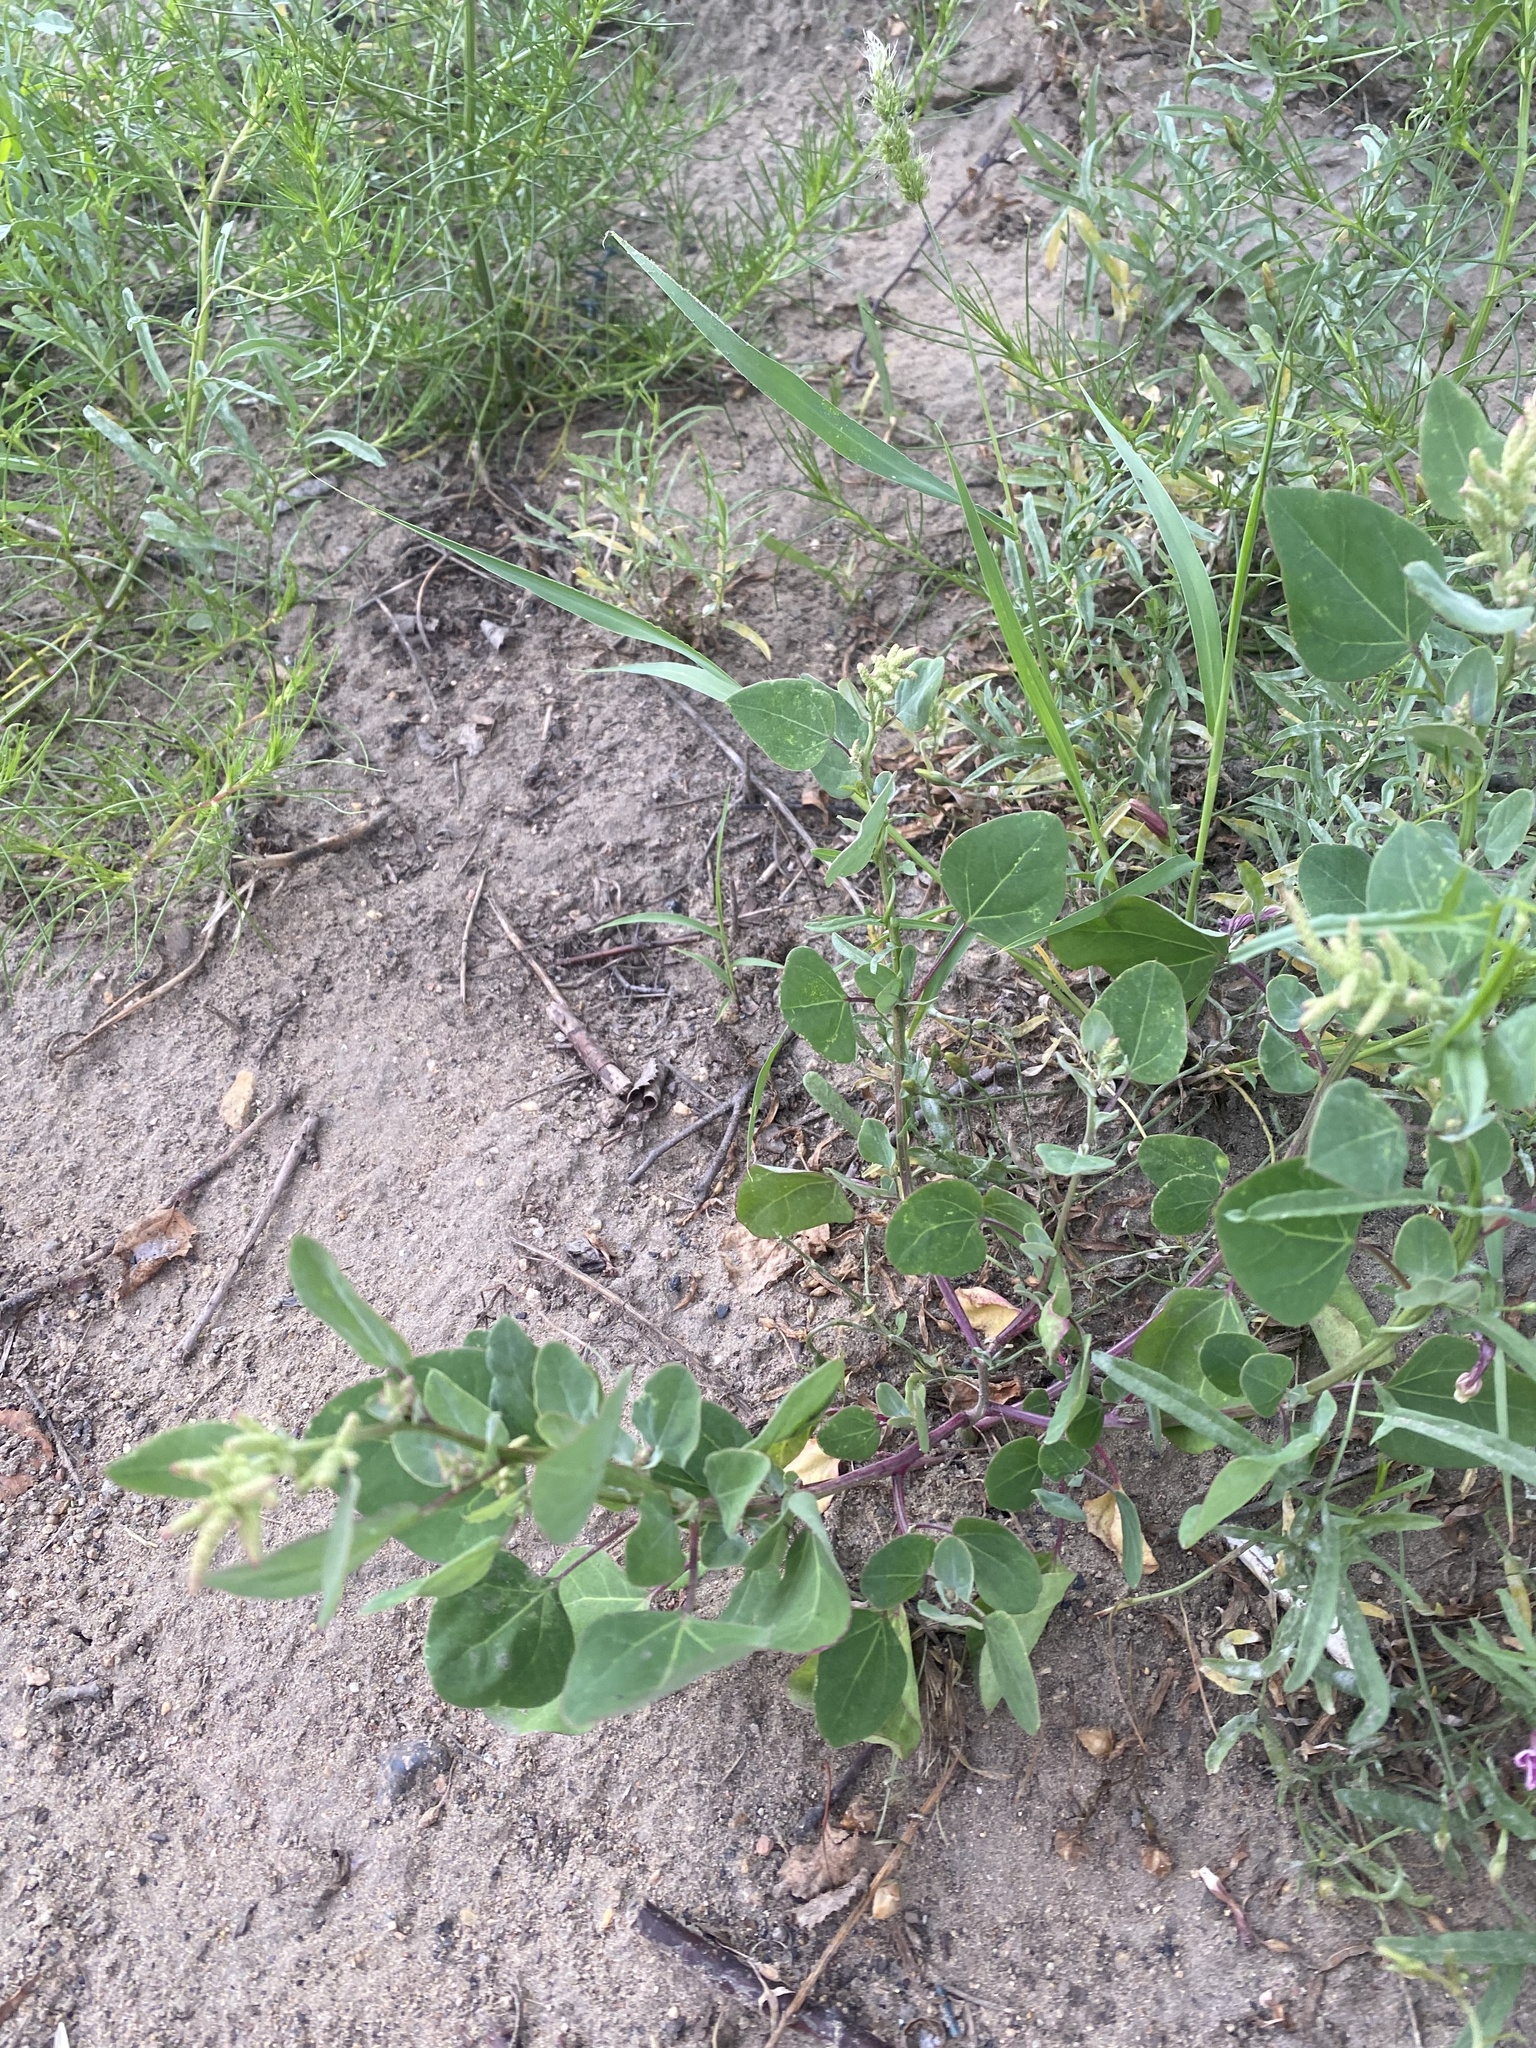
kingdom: Plantae
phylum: Tracheophyta
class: Magnoliopsida
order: Caryophyllales
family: Amaranthaceae
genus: Chenopodium
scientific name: Chenopodium acuminatum
